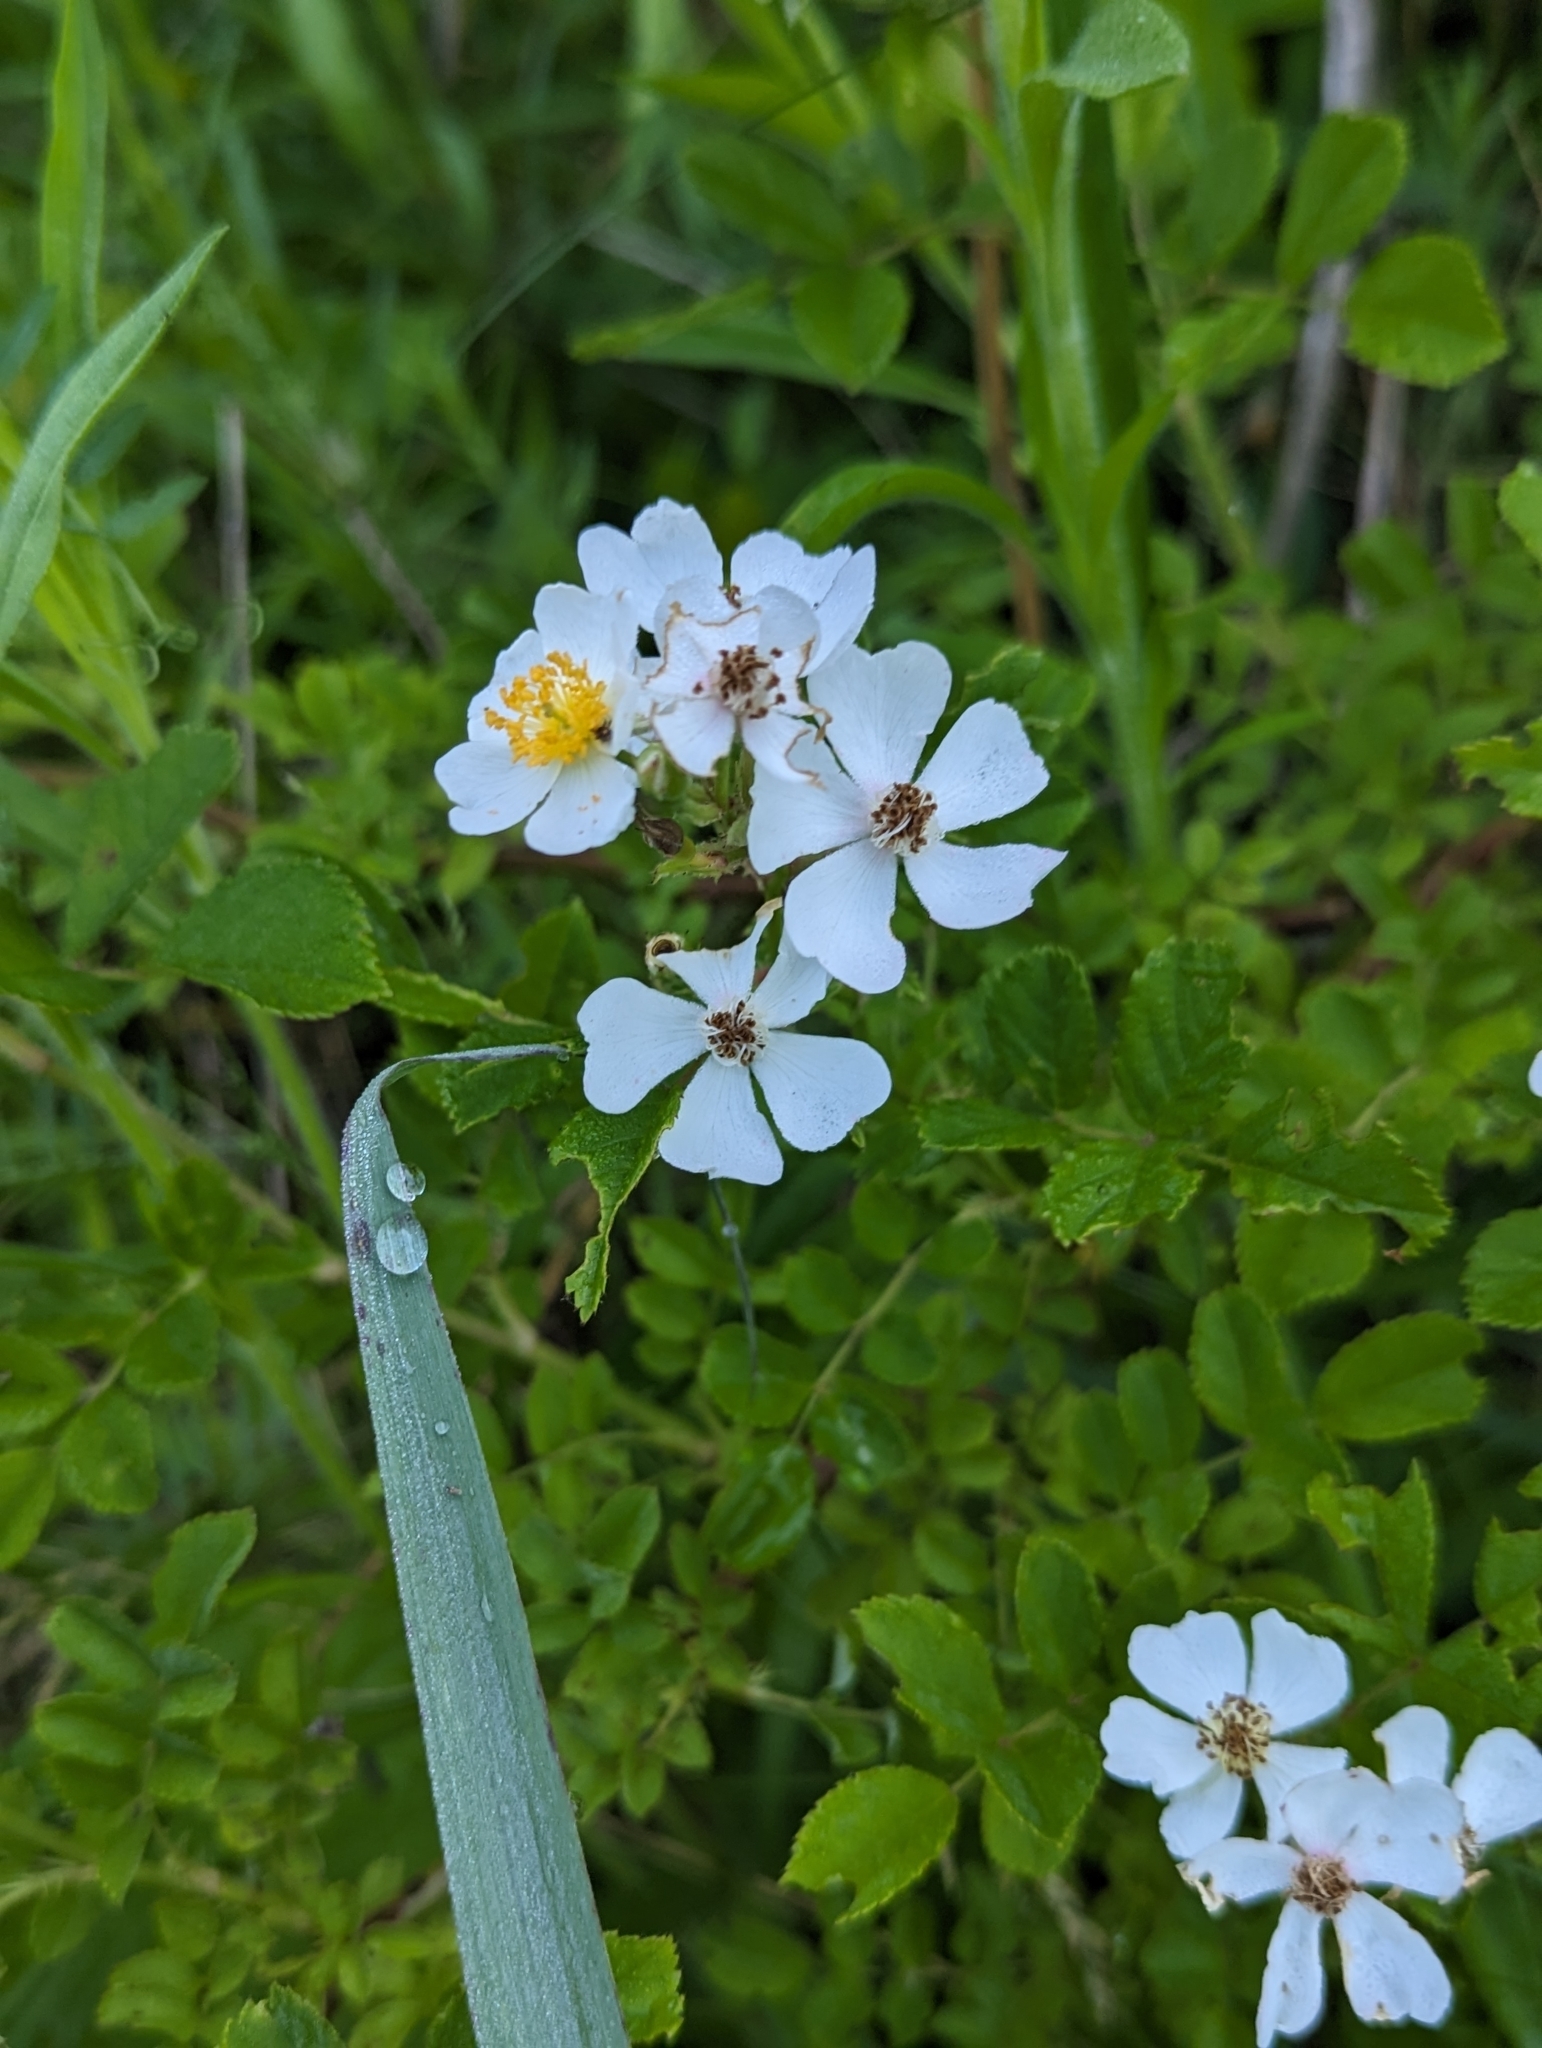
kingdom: Plantae
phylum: Tracheophyta
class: Magnoliopsida
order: Rosales
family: Rosaceae
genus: Rosa
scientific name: Rosa multiflora
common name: Multiflora rose
